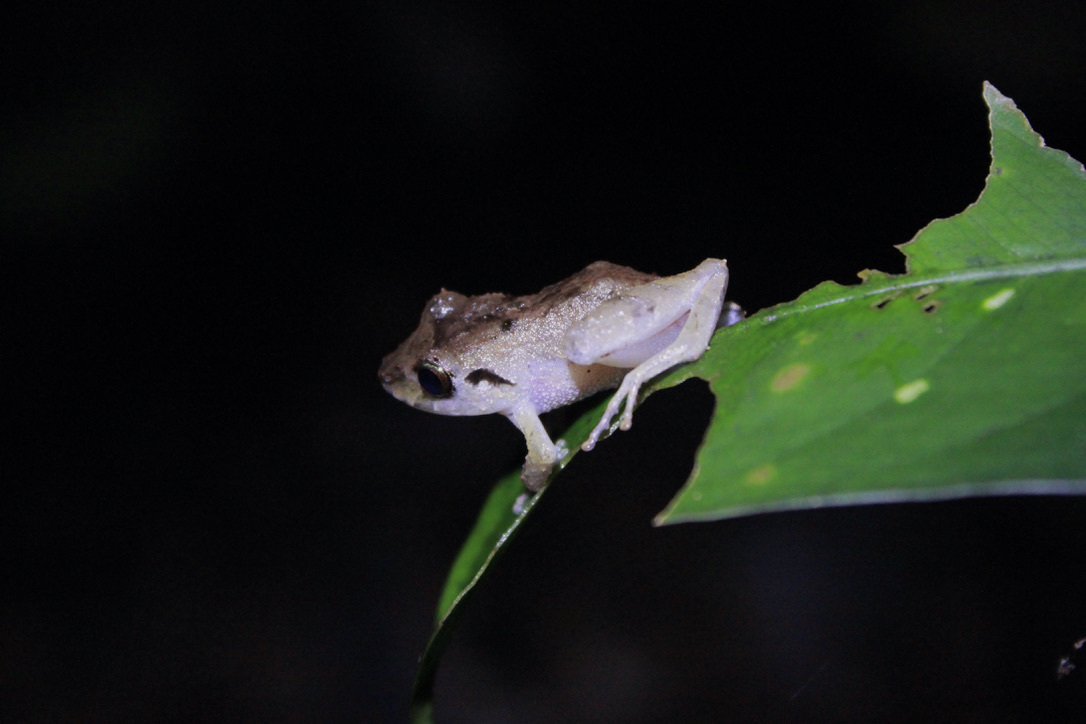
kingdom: Animalia
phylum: Chordata
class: Amphibia
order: Anura
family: Craugastoridae
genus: Pristimantis
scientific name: Pristimantis urichi
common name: Lesser antilles robber frog
